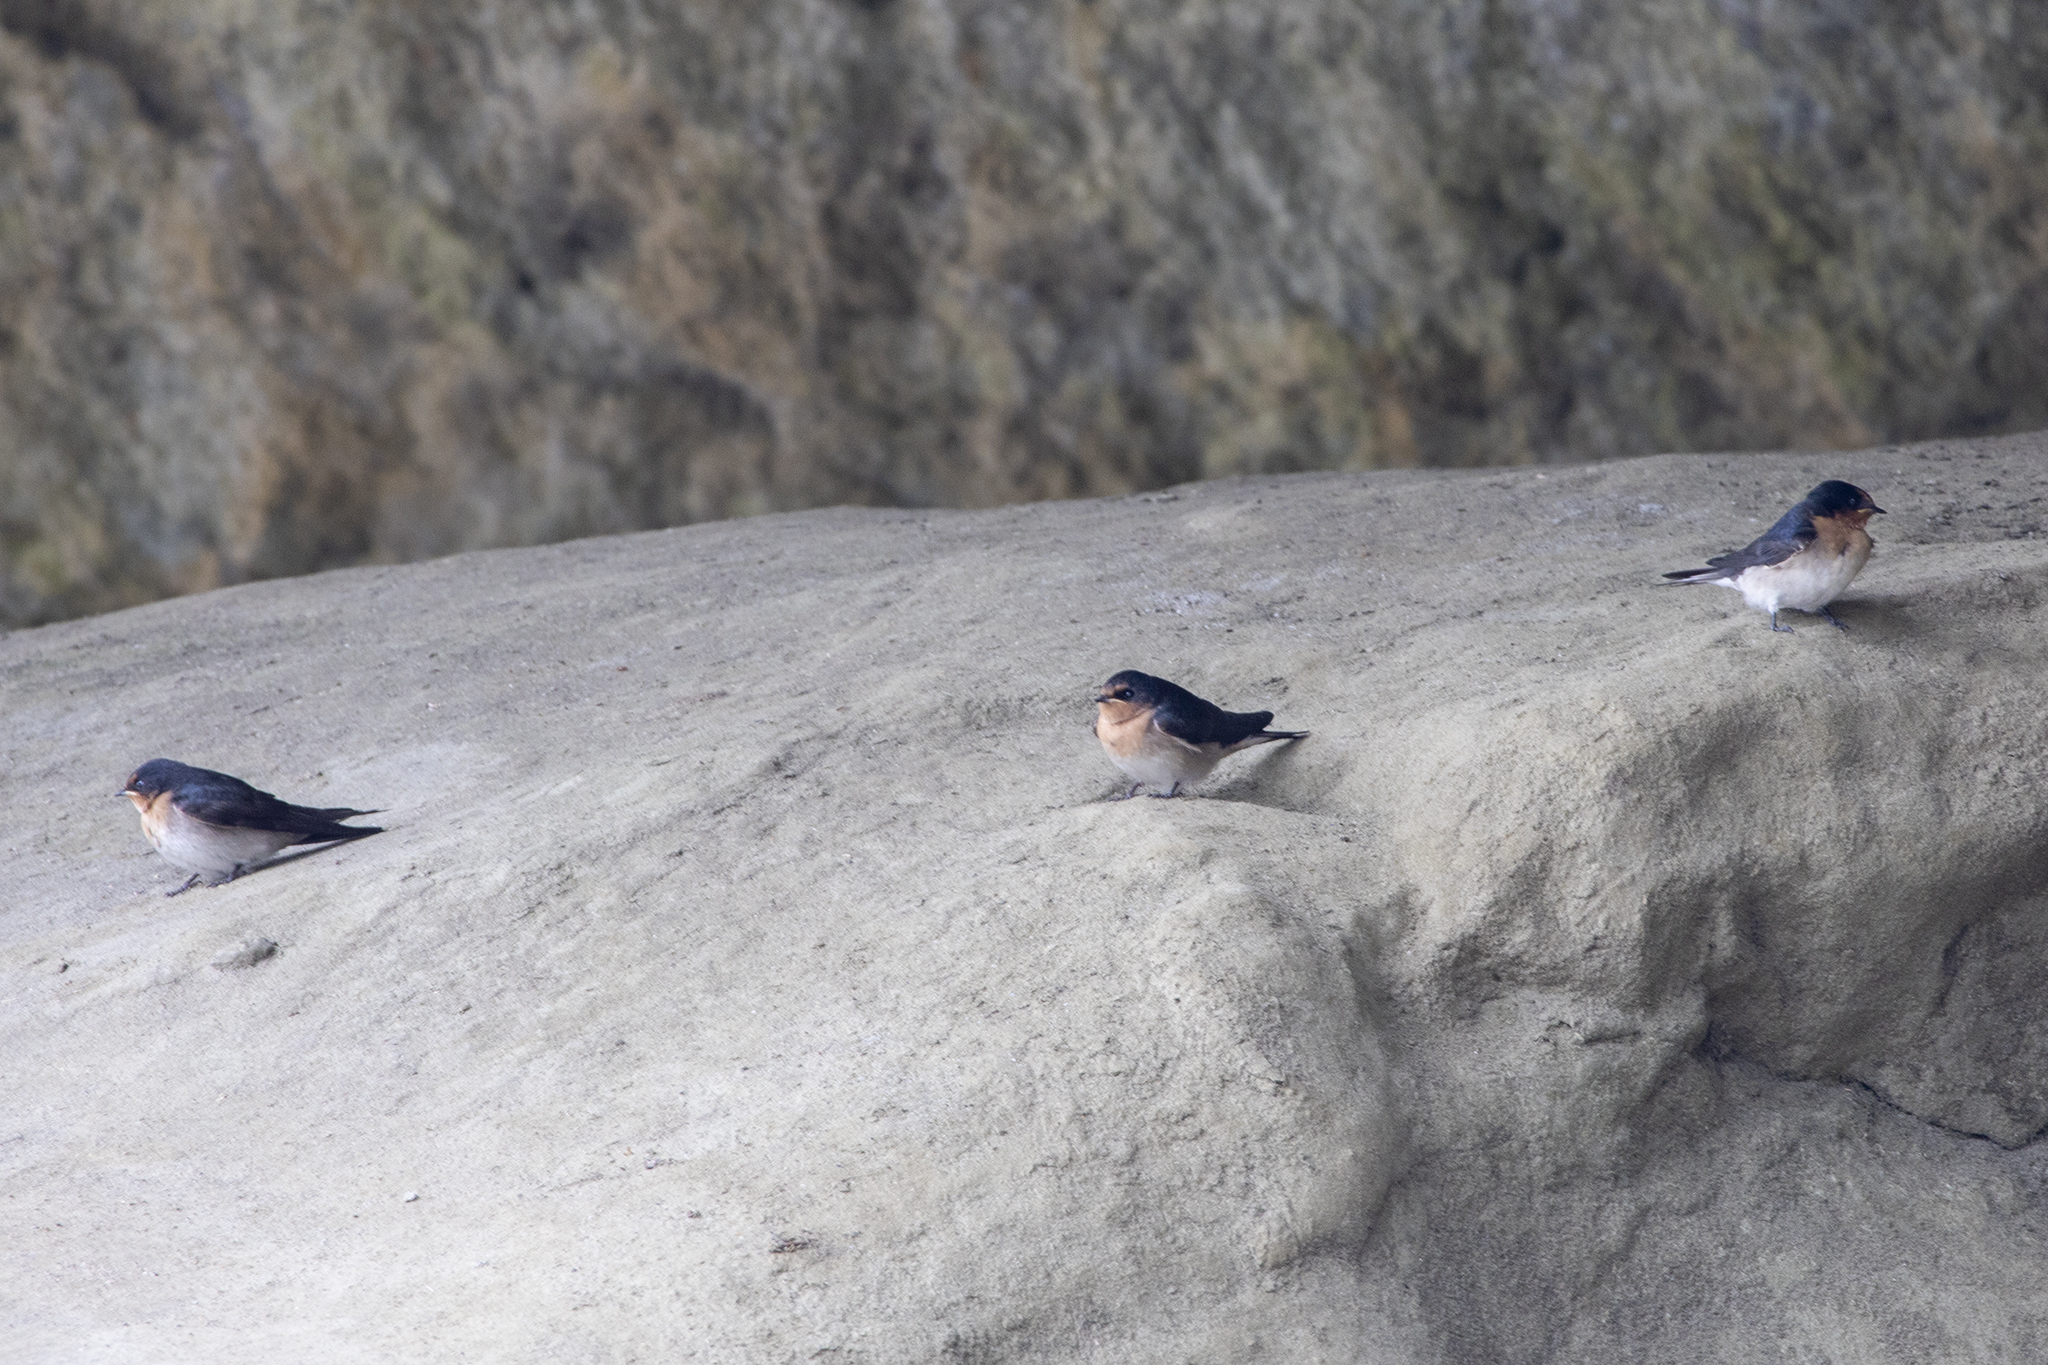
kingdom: Animalia
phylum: Chordata
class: Aves
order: Passeriformes
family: Hirundinidae
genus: Hirundo
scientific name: Hirundo neoxena
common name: Welcome swallow
